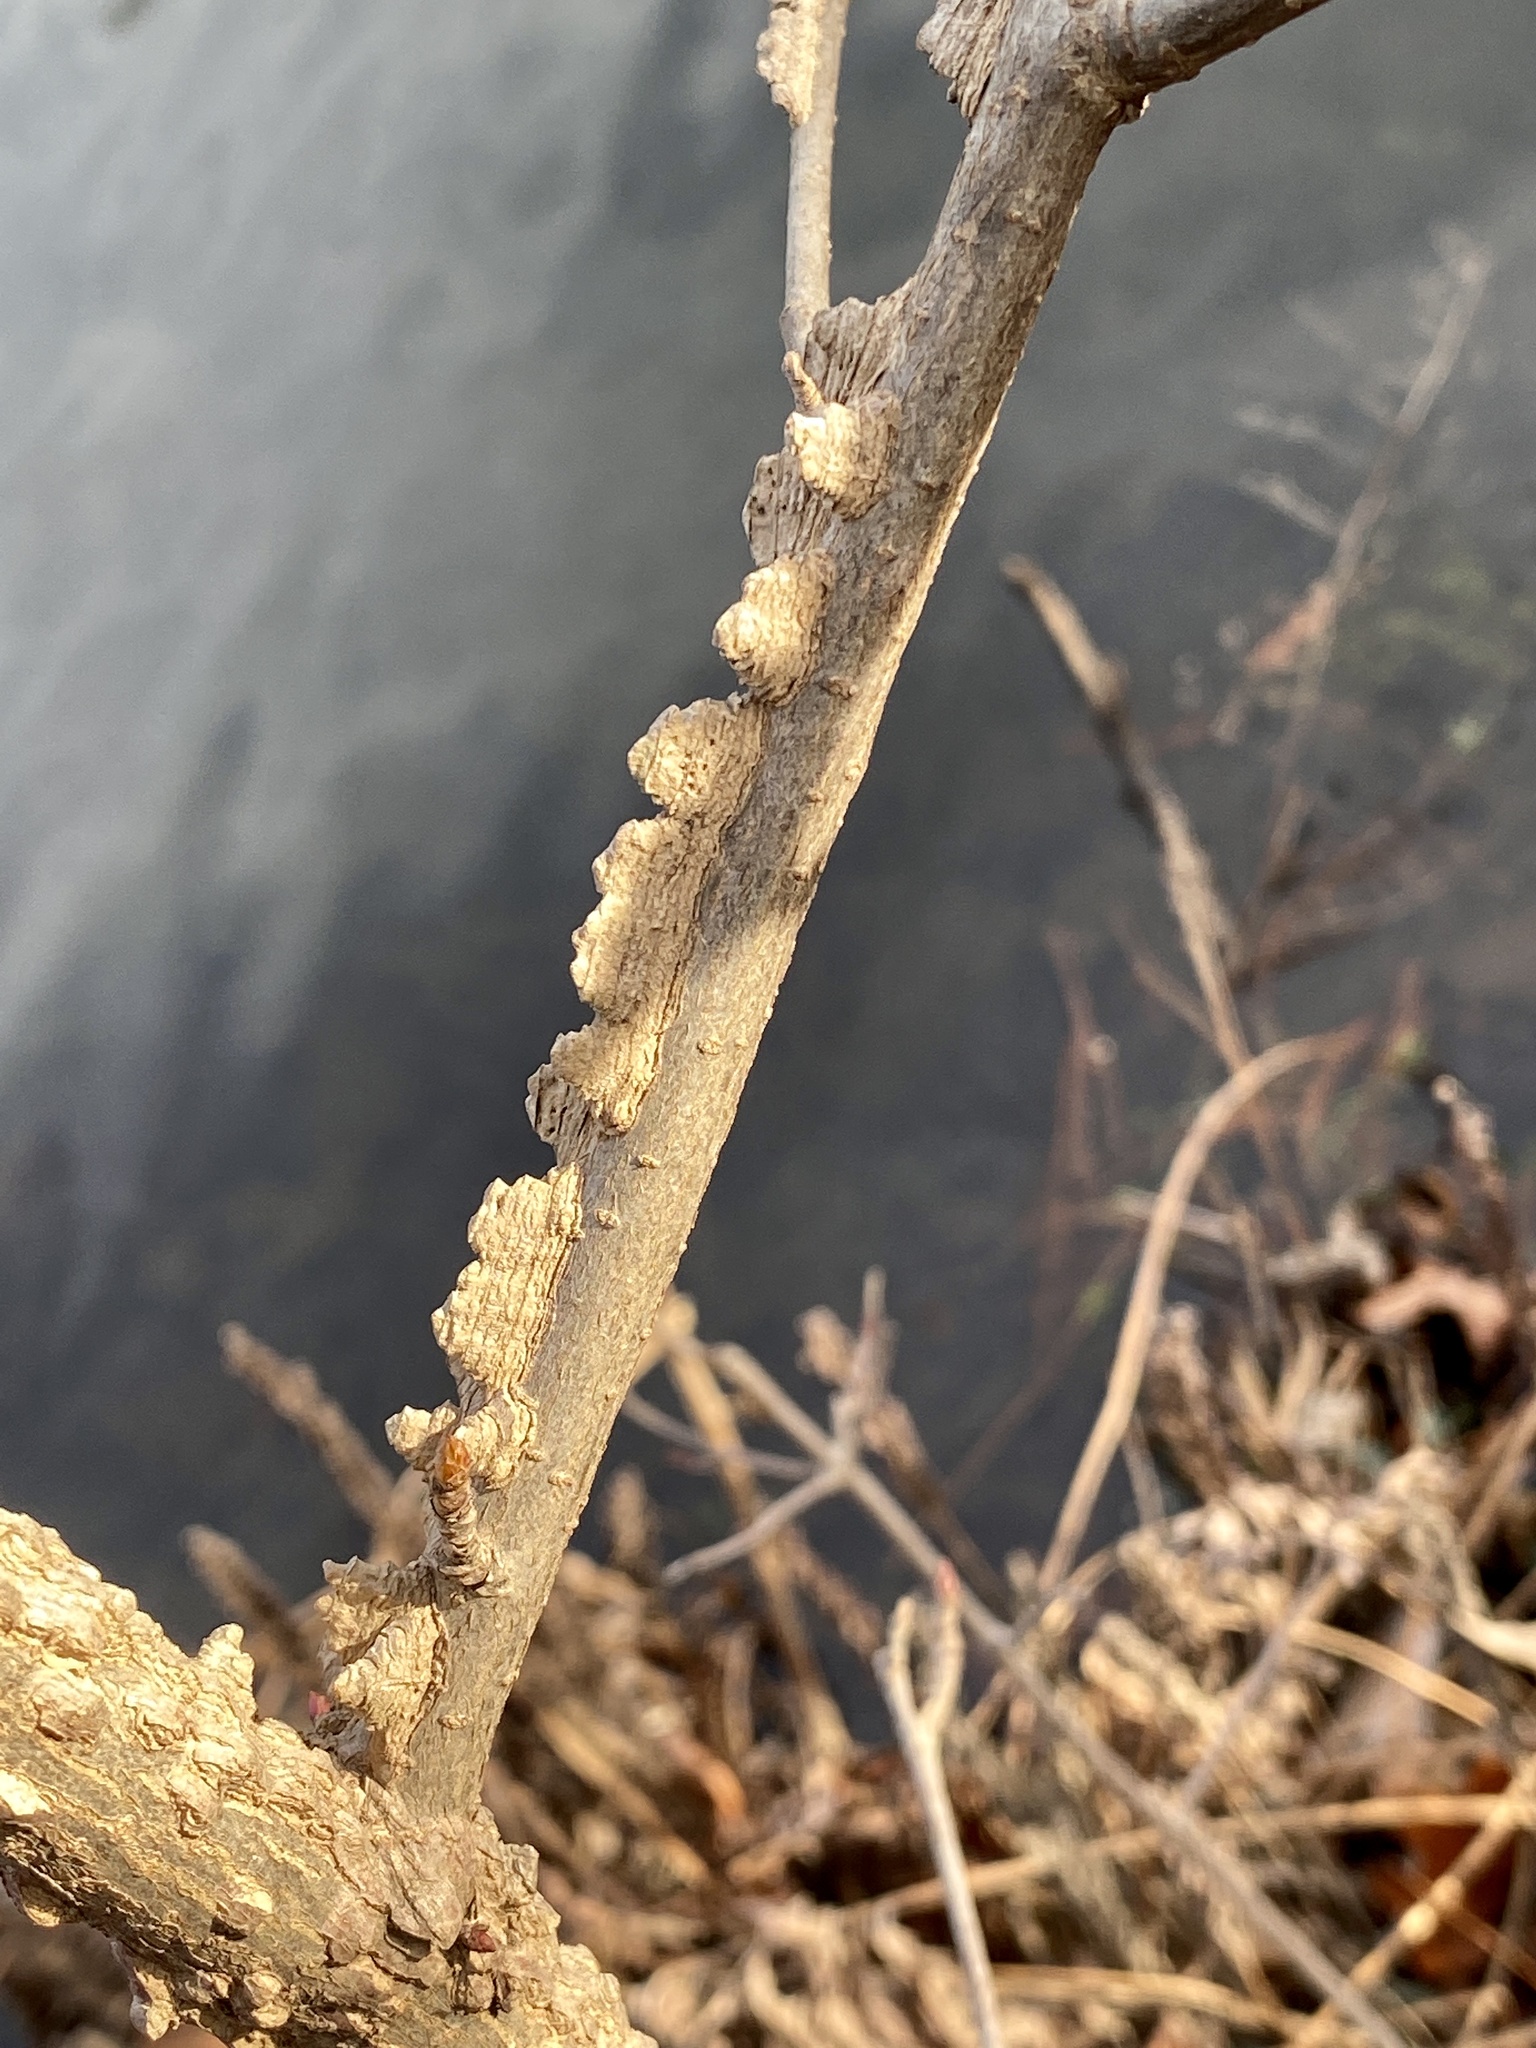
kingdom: Plantae
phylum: Tracheophyta
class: Magnoliopsida
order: Saxifragales
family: Altingiaceae
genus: Liquidambar
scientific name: Liquidambar styraciflua
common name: Sweet gum
